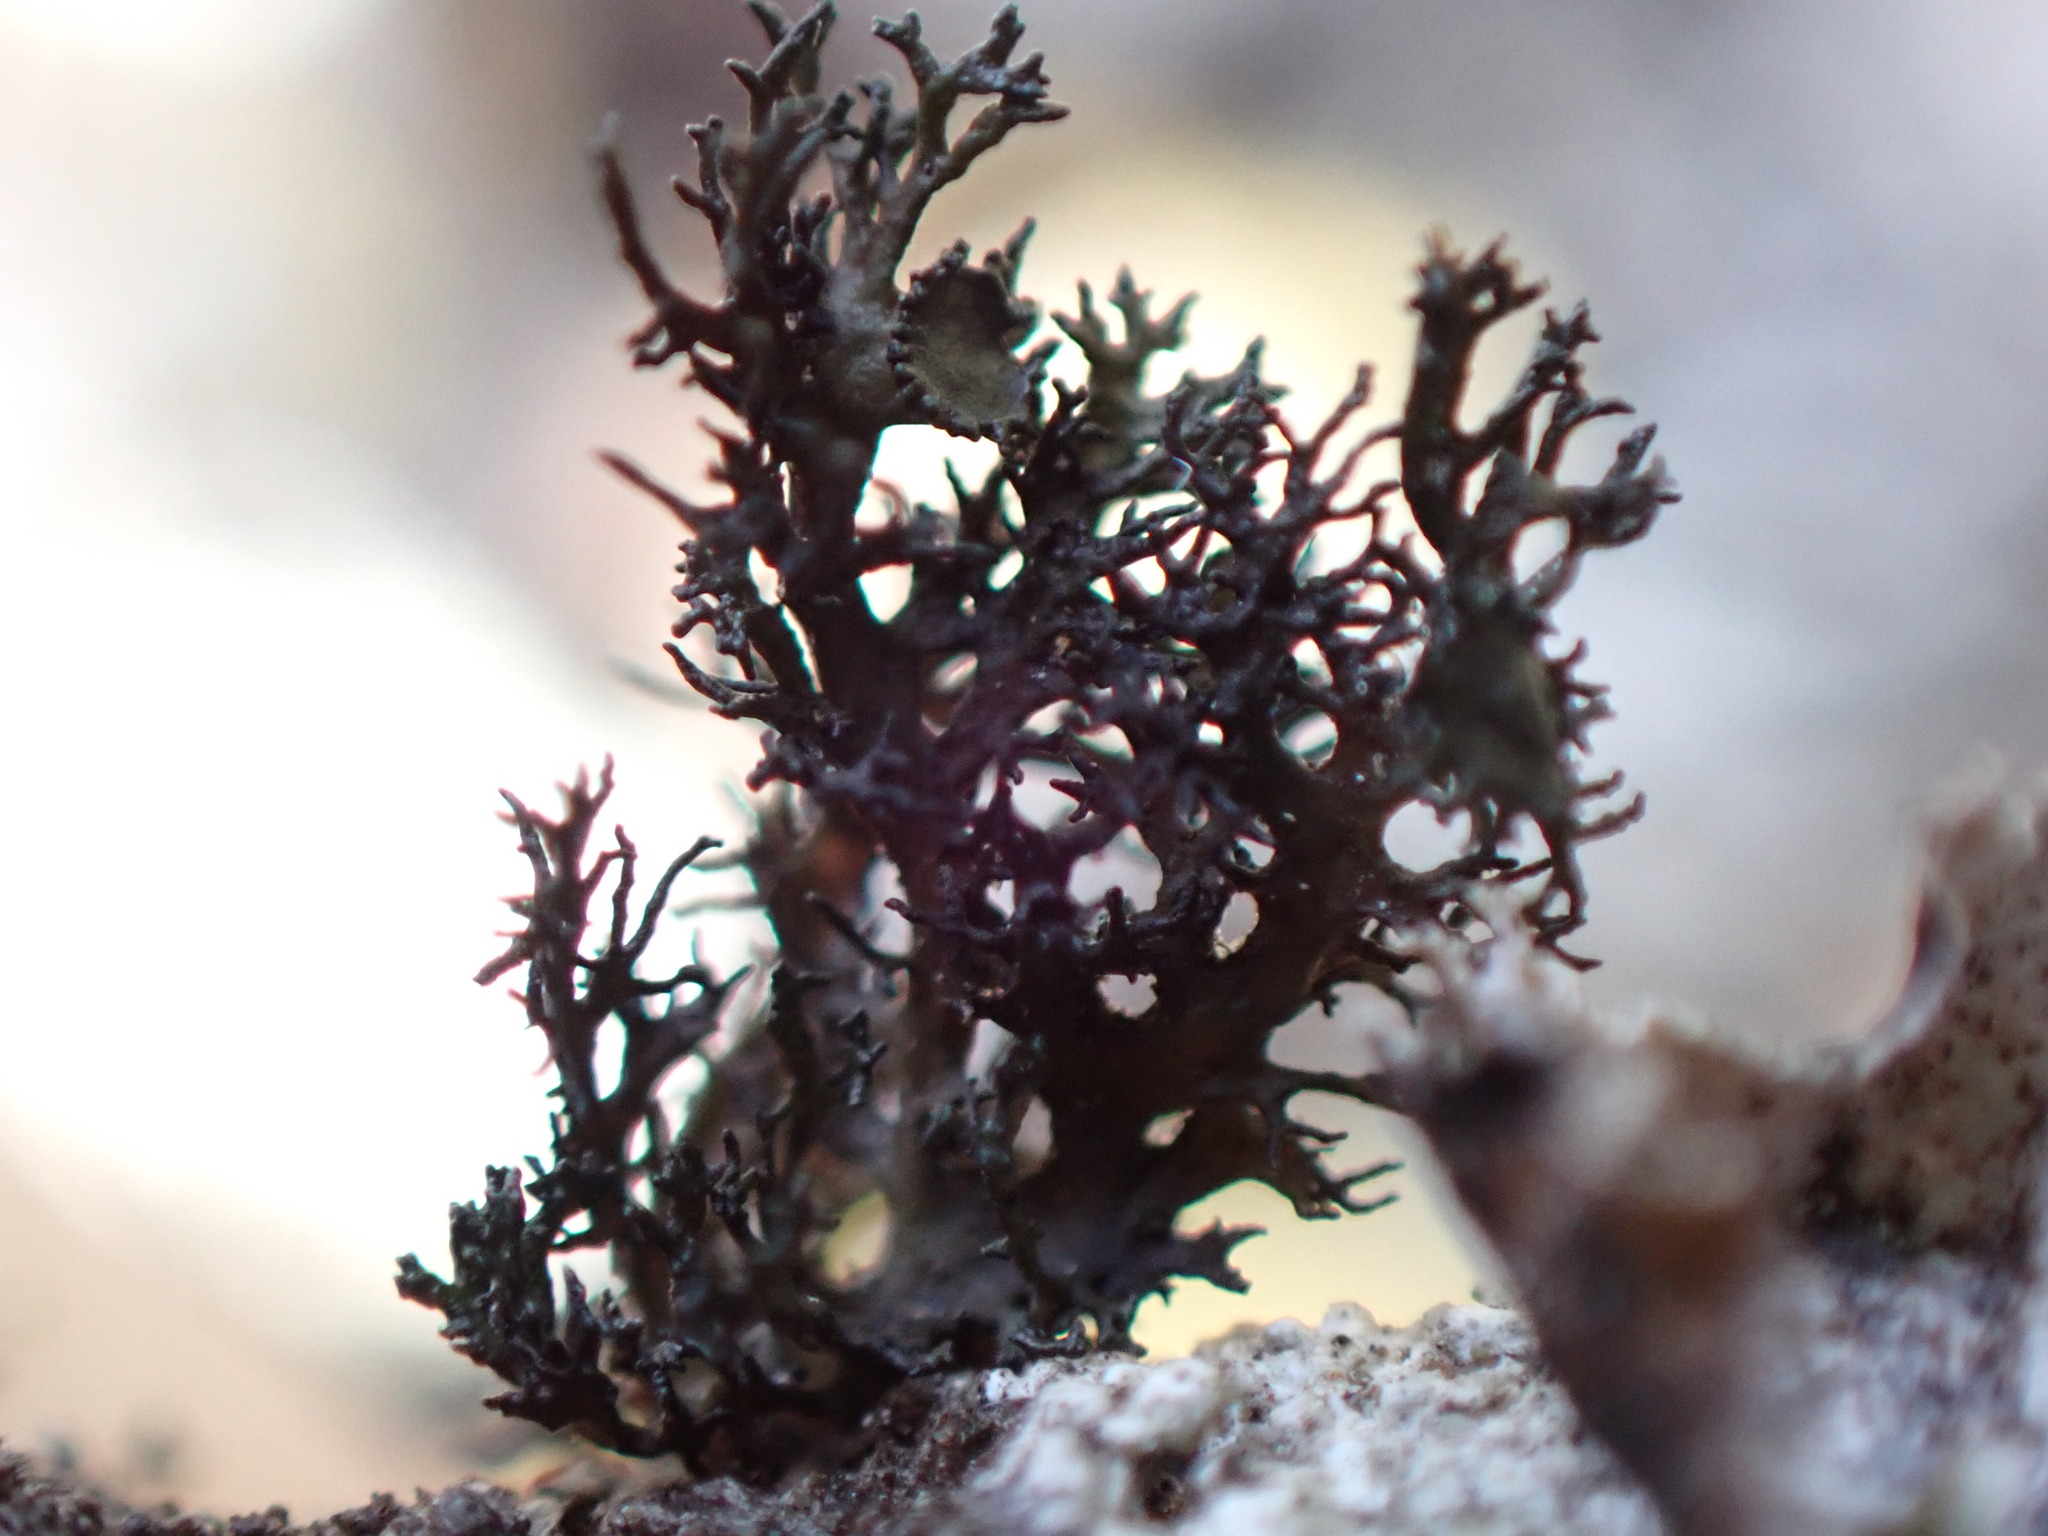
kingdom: Fungi
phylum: Ascomycota
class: Lecanoromycetes
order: Lecanorales
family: Parmeliaceae
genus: Nephromopsis
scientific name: Nephromopsis merrillii
